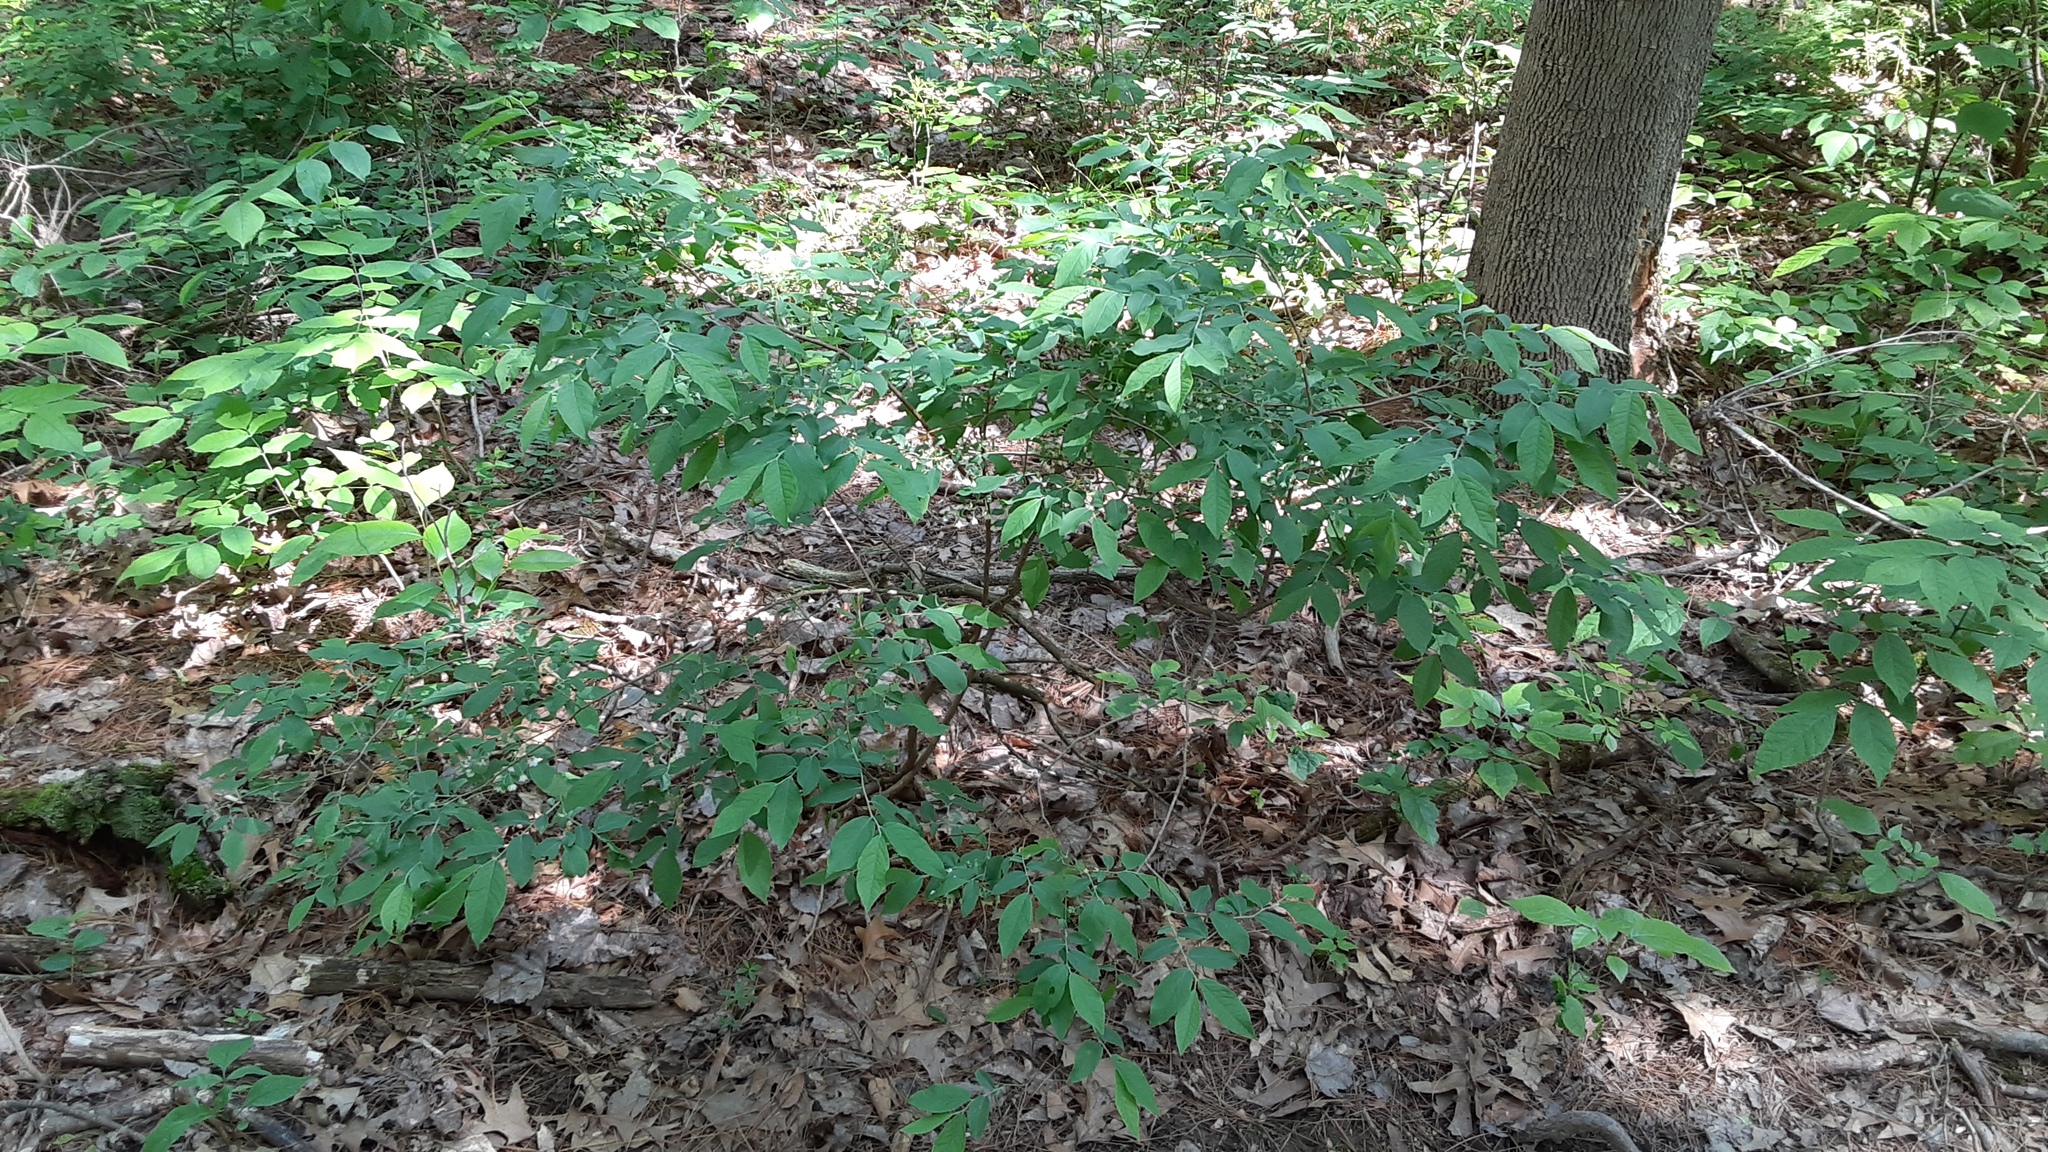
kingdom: Plantae
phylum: Tracheophyta
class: Magnoliopsida
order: Ericales
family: Ericaceae
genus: Vaccinium
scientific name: Vaccinium stamineum
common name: Deerberry
